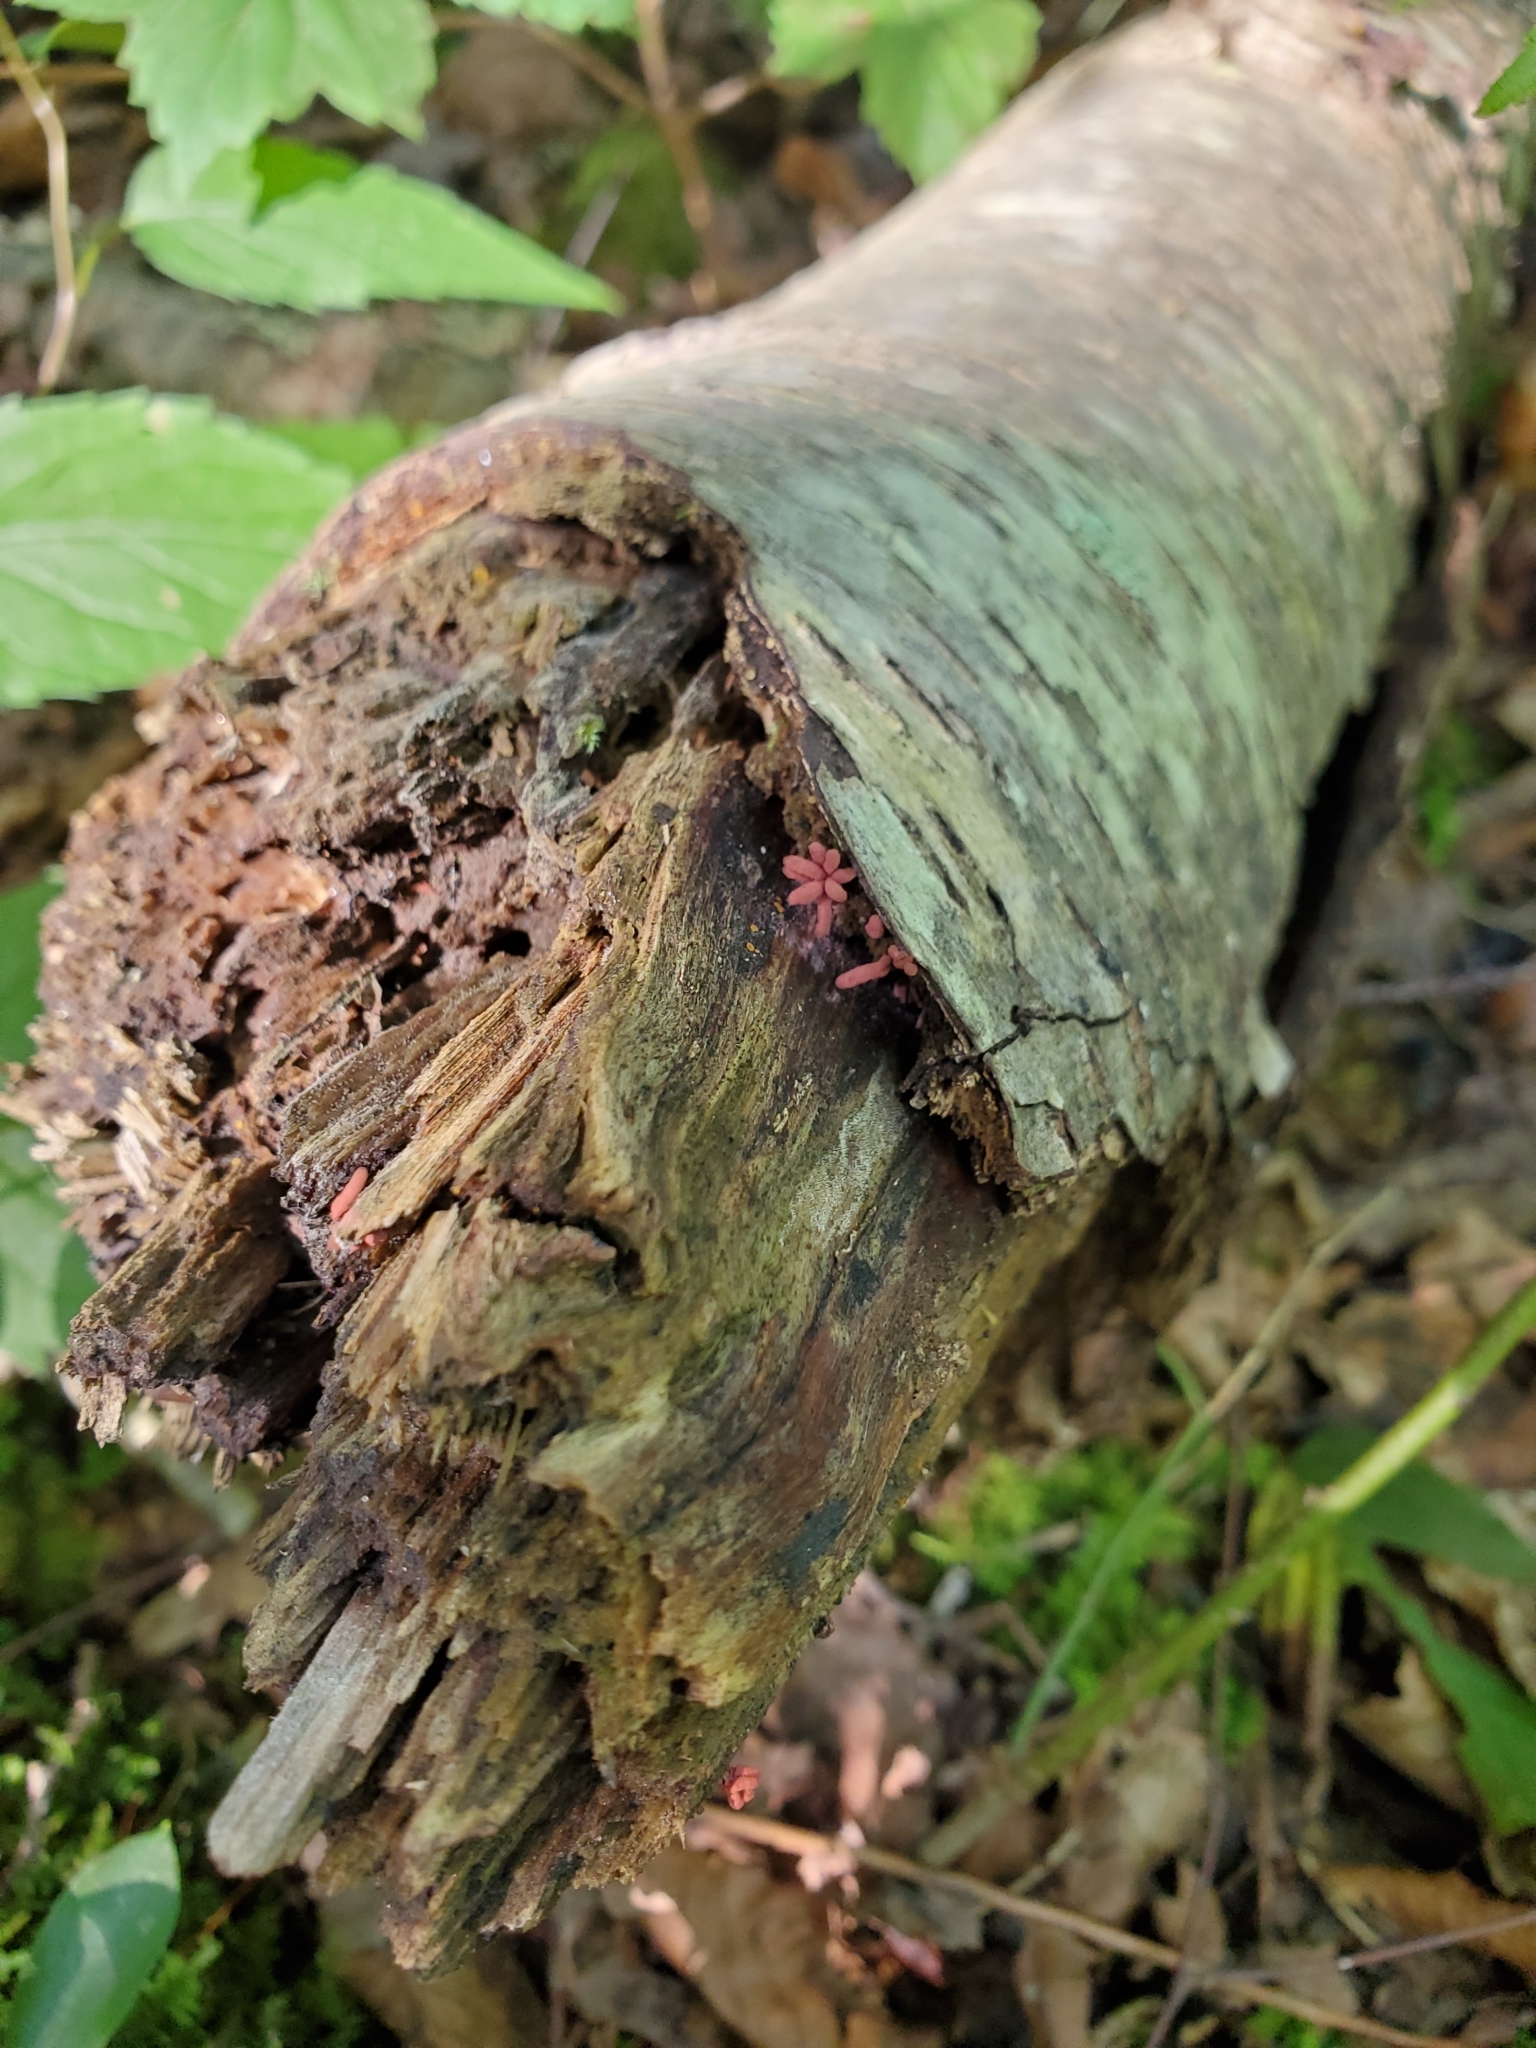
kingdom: Protozoa
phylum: Mycetozoa
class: Myxomycetes
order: Trichiales
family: Arcyriaceae
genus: Arcyria
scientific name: Arcyria denudata
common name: Carnival candy slime mold
